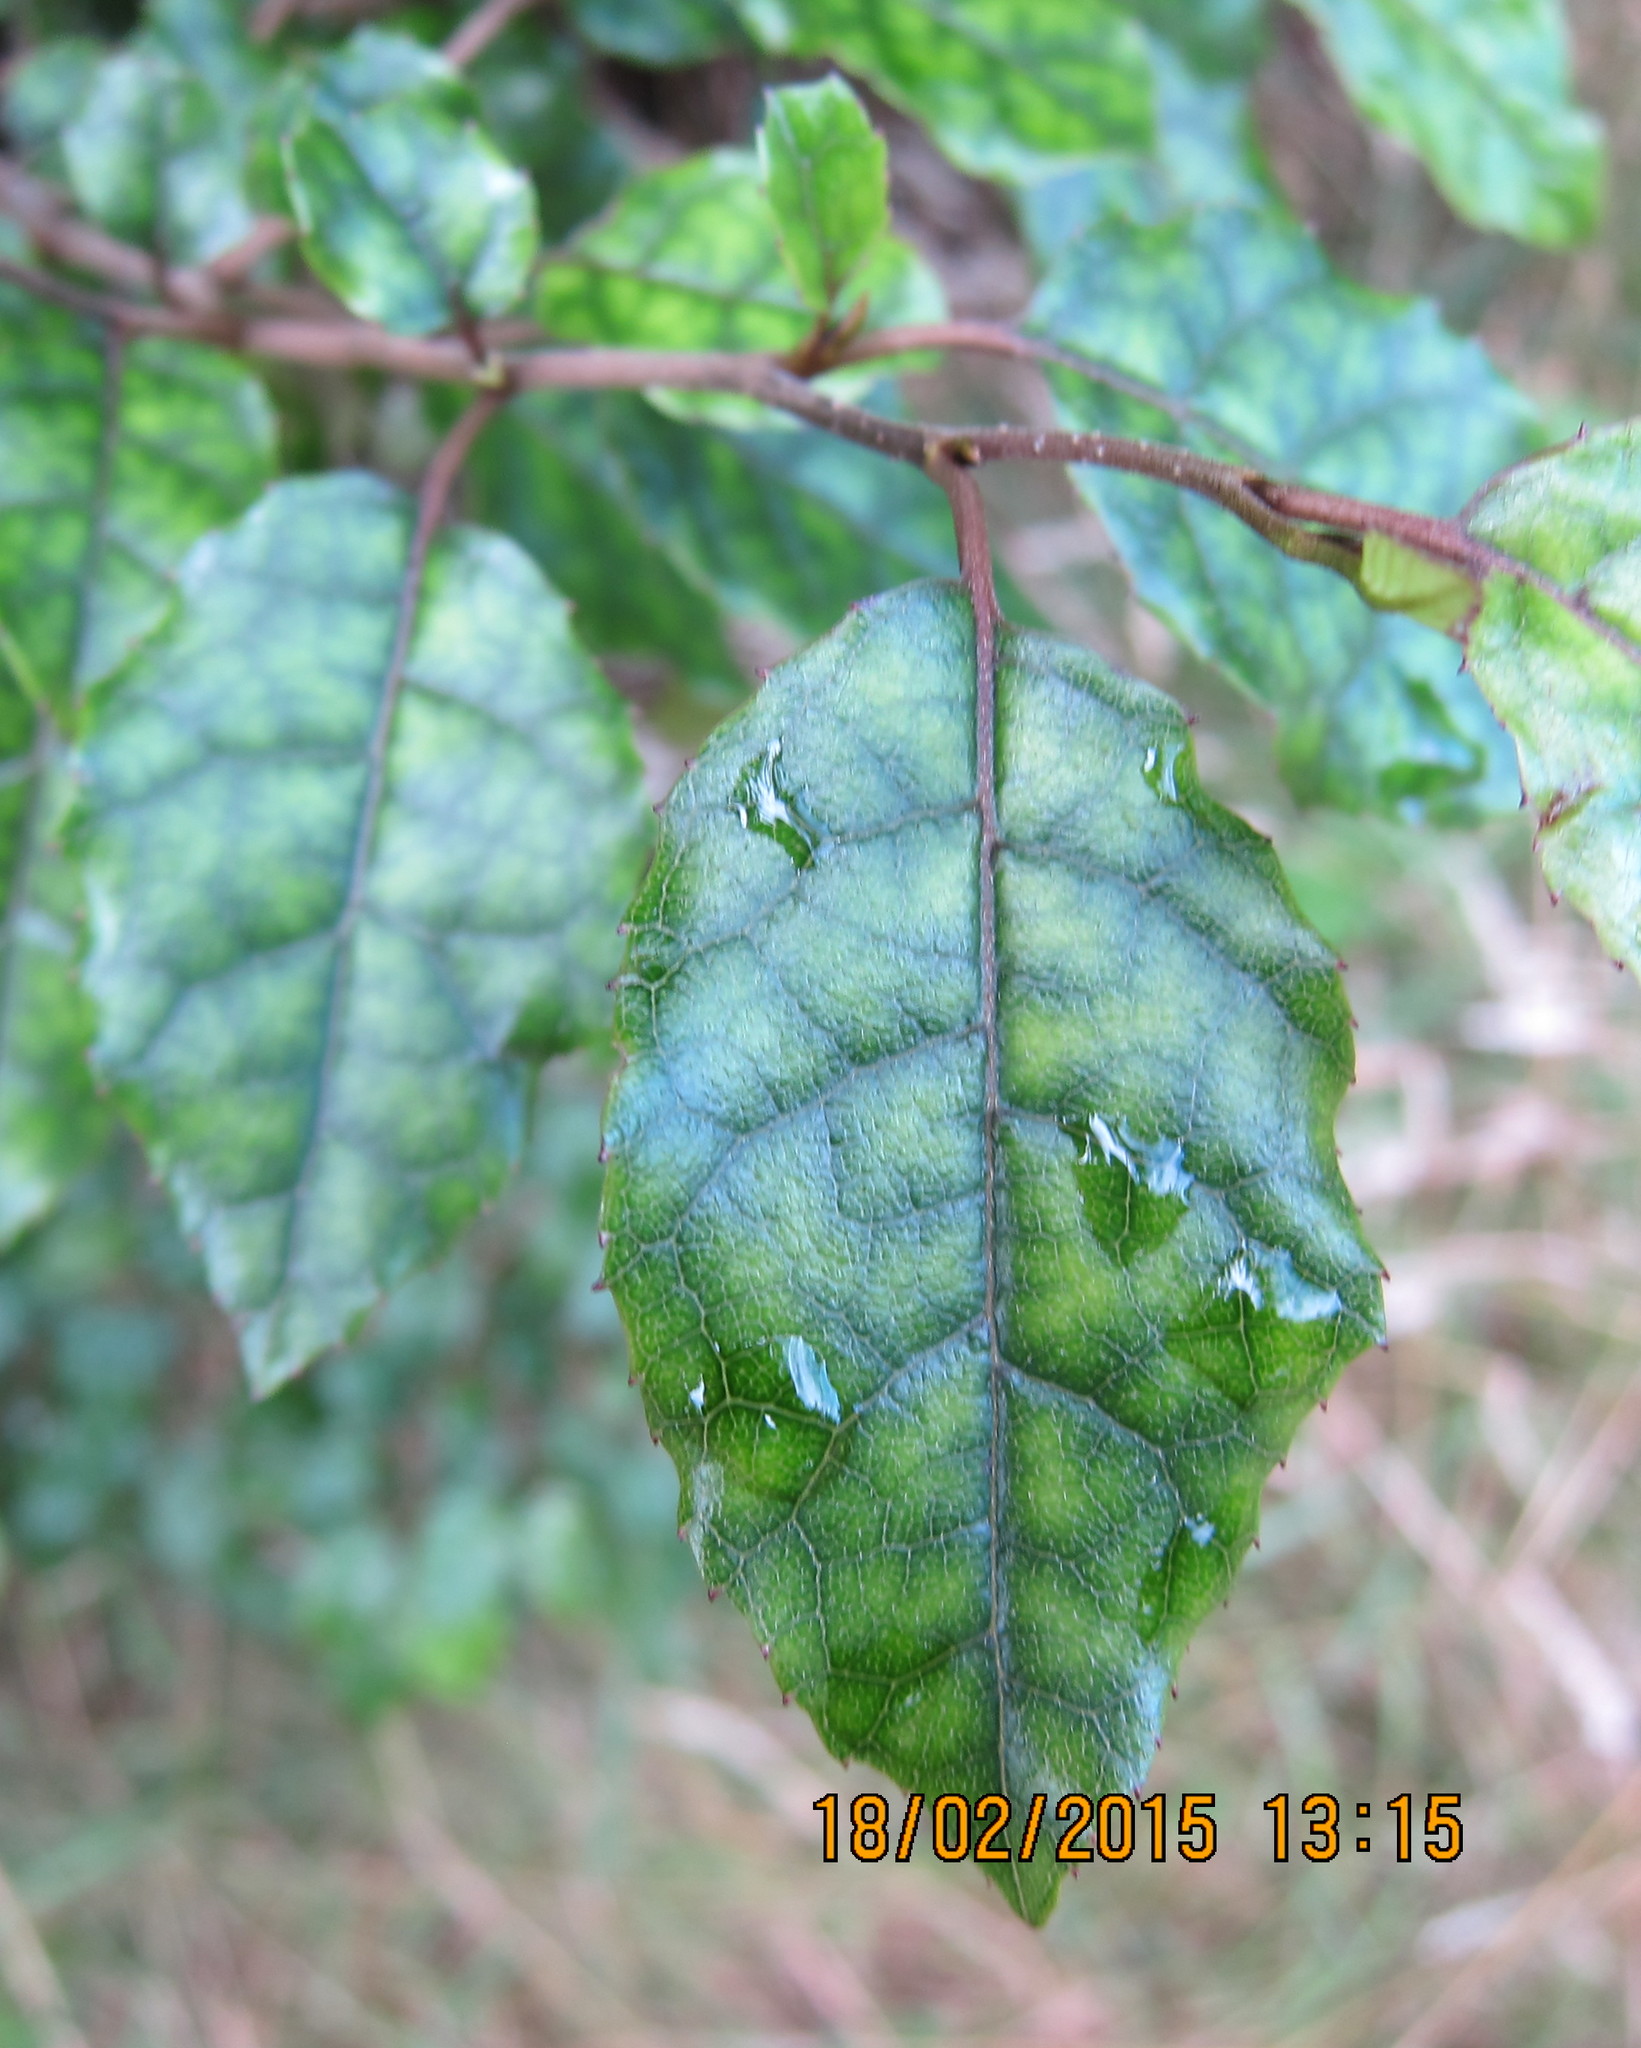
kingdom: Plantae
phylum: Tracheophyta
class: Magnoliopsida
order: Asterales
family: Rousseaceae
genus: Carpodetus
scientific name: Carpodetus serratus
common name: White mapau
